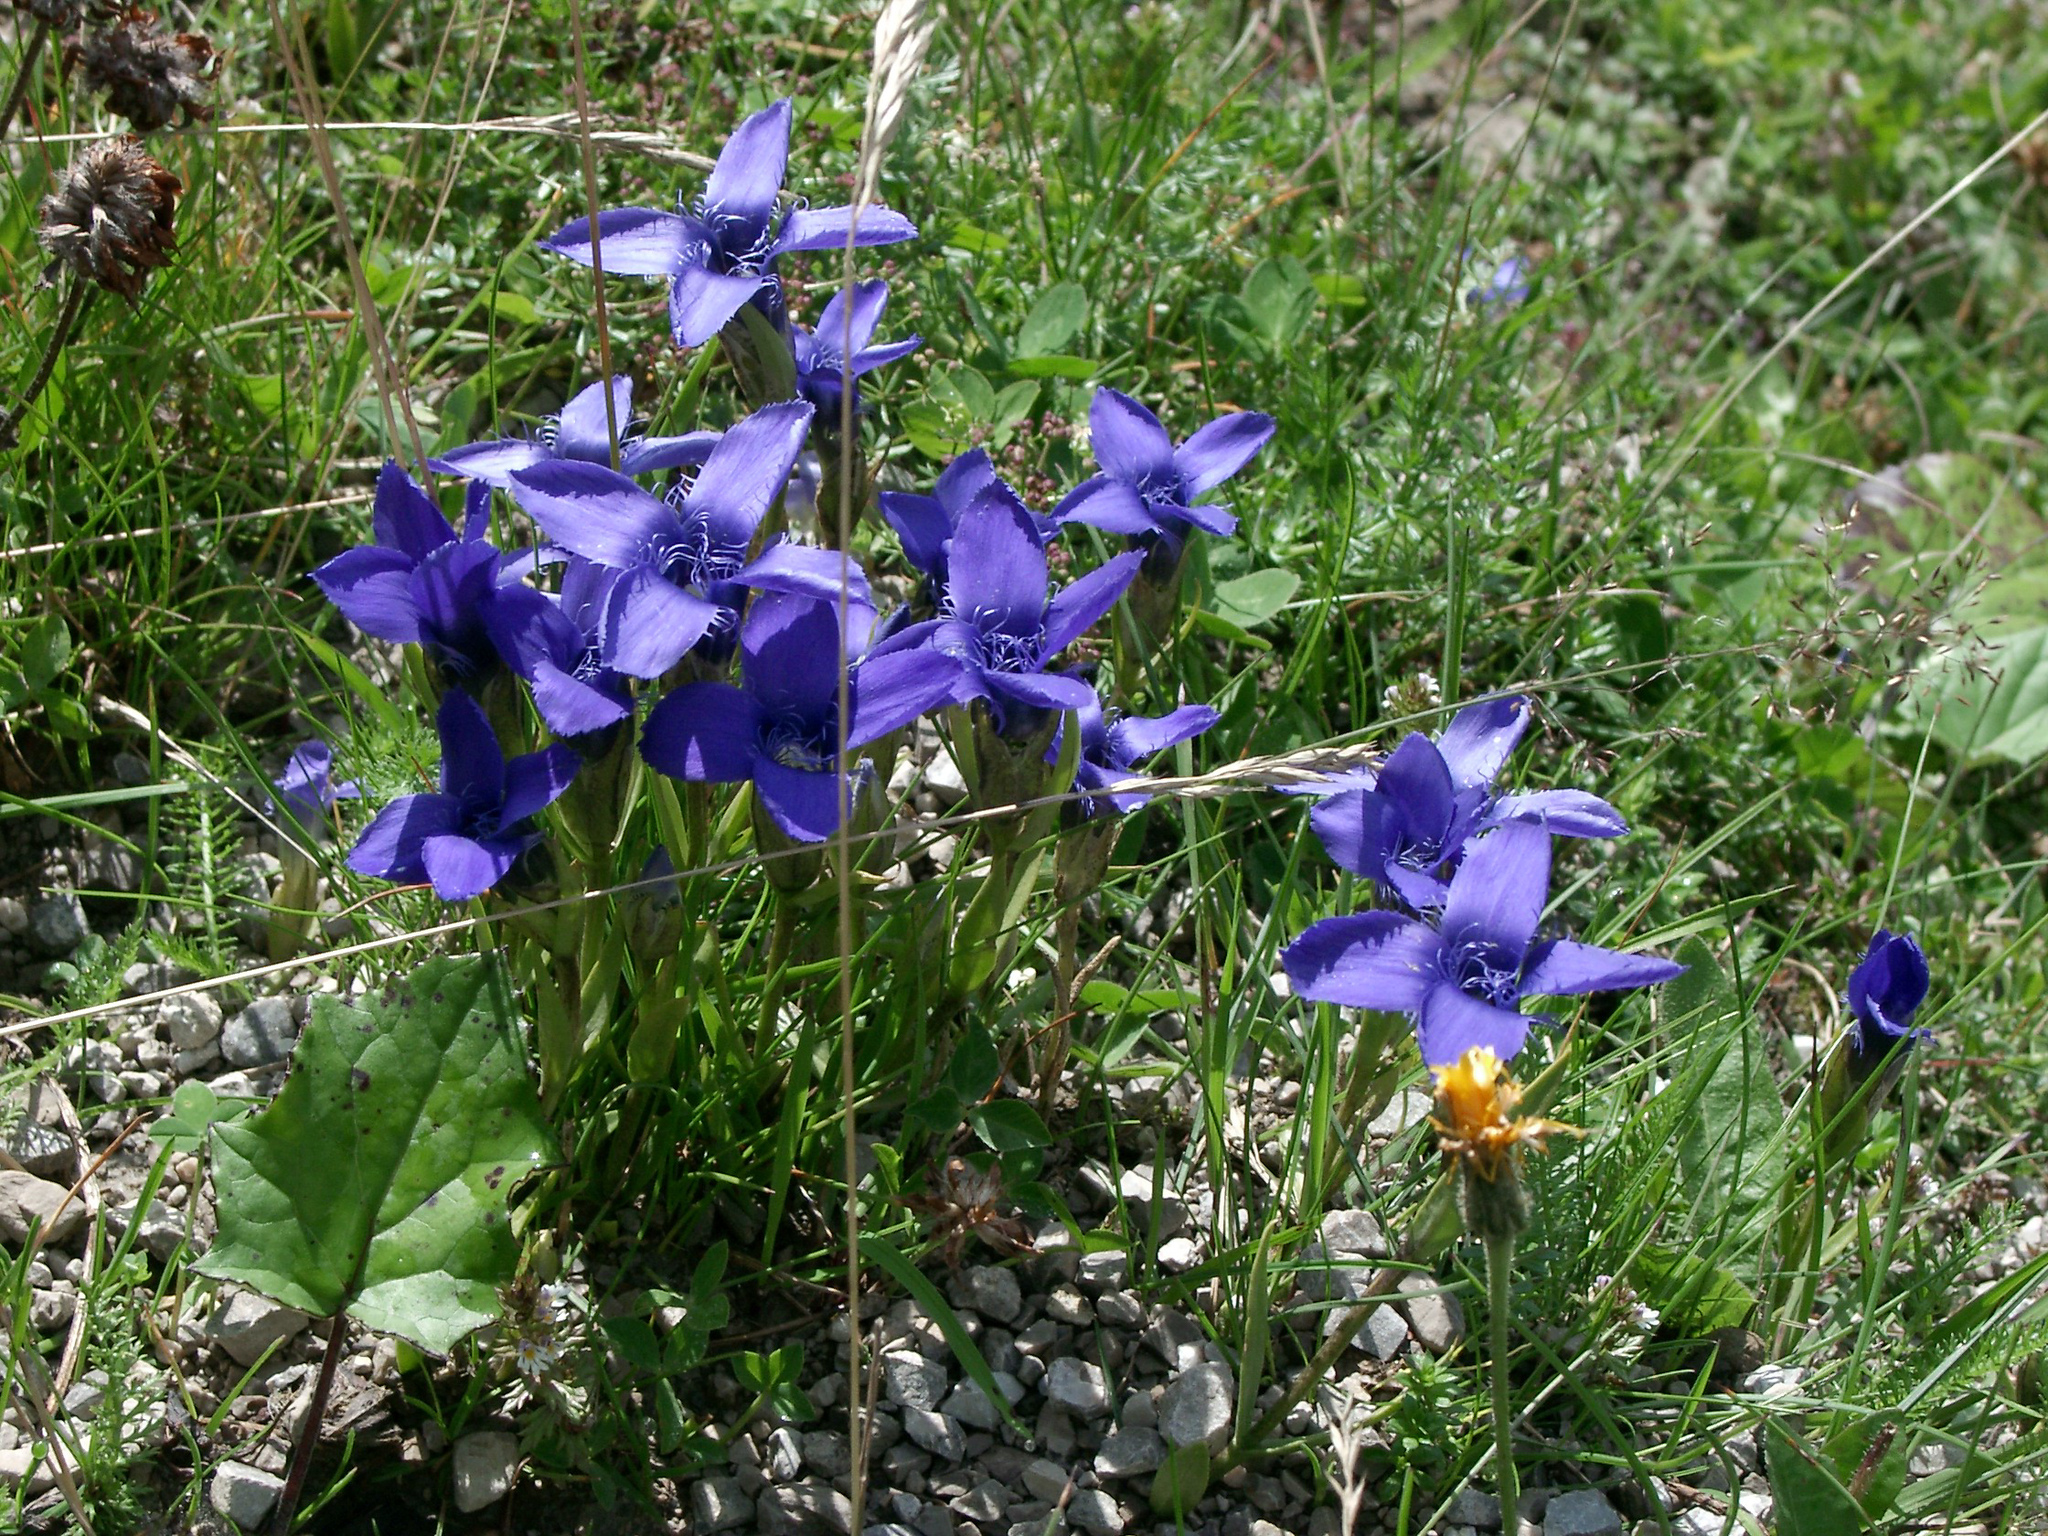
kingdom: Plantae
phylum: Tracheophyta
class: Magnoliopsida
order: Gentianales
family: Gentianaceae
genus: Gentianopsis
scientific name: Gentianopsis ciliata
